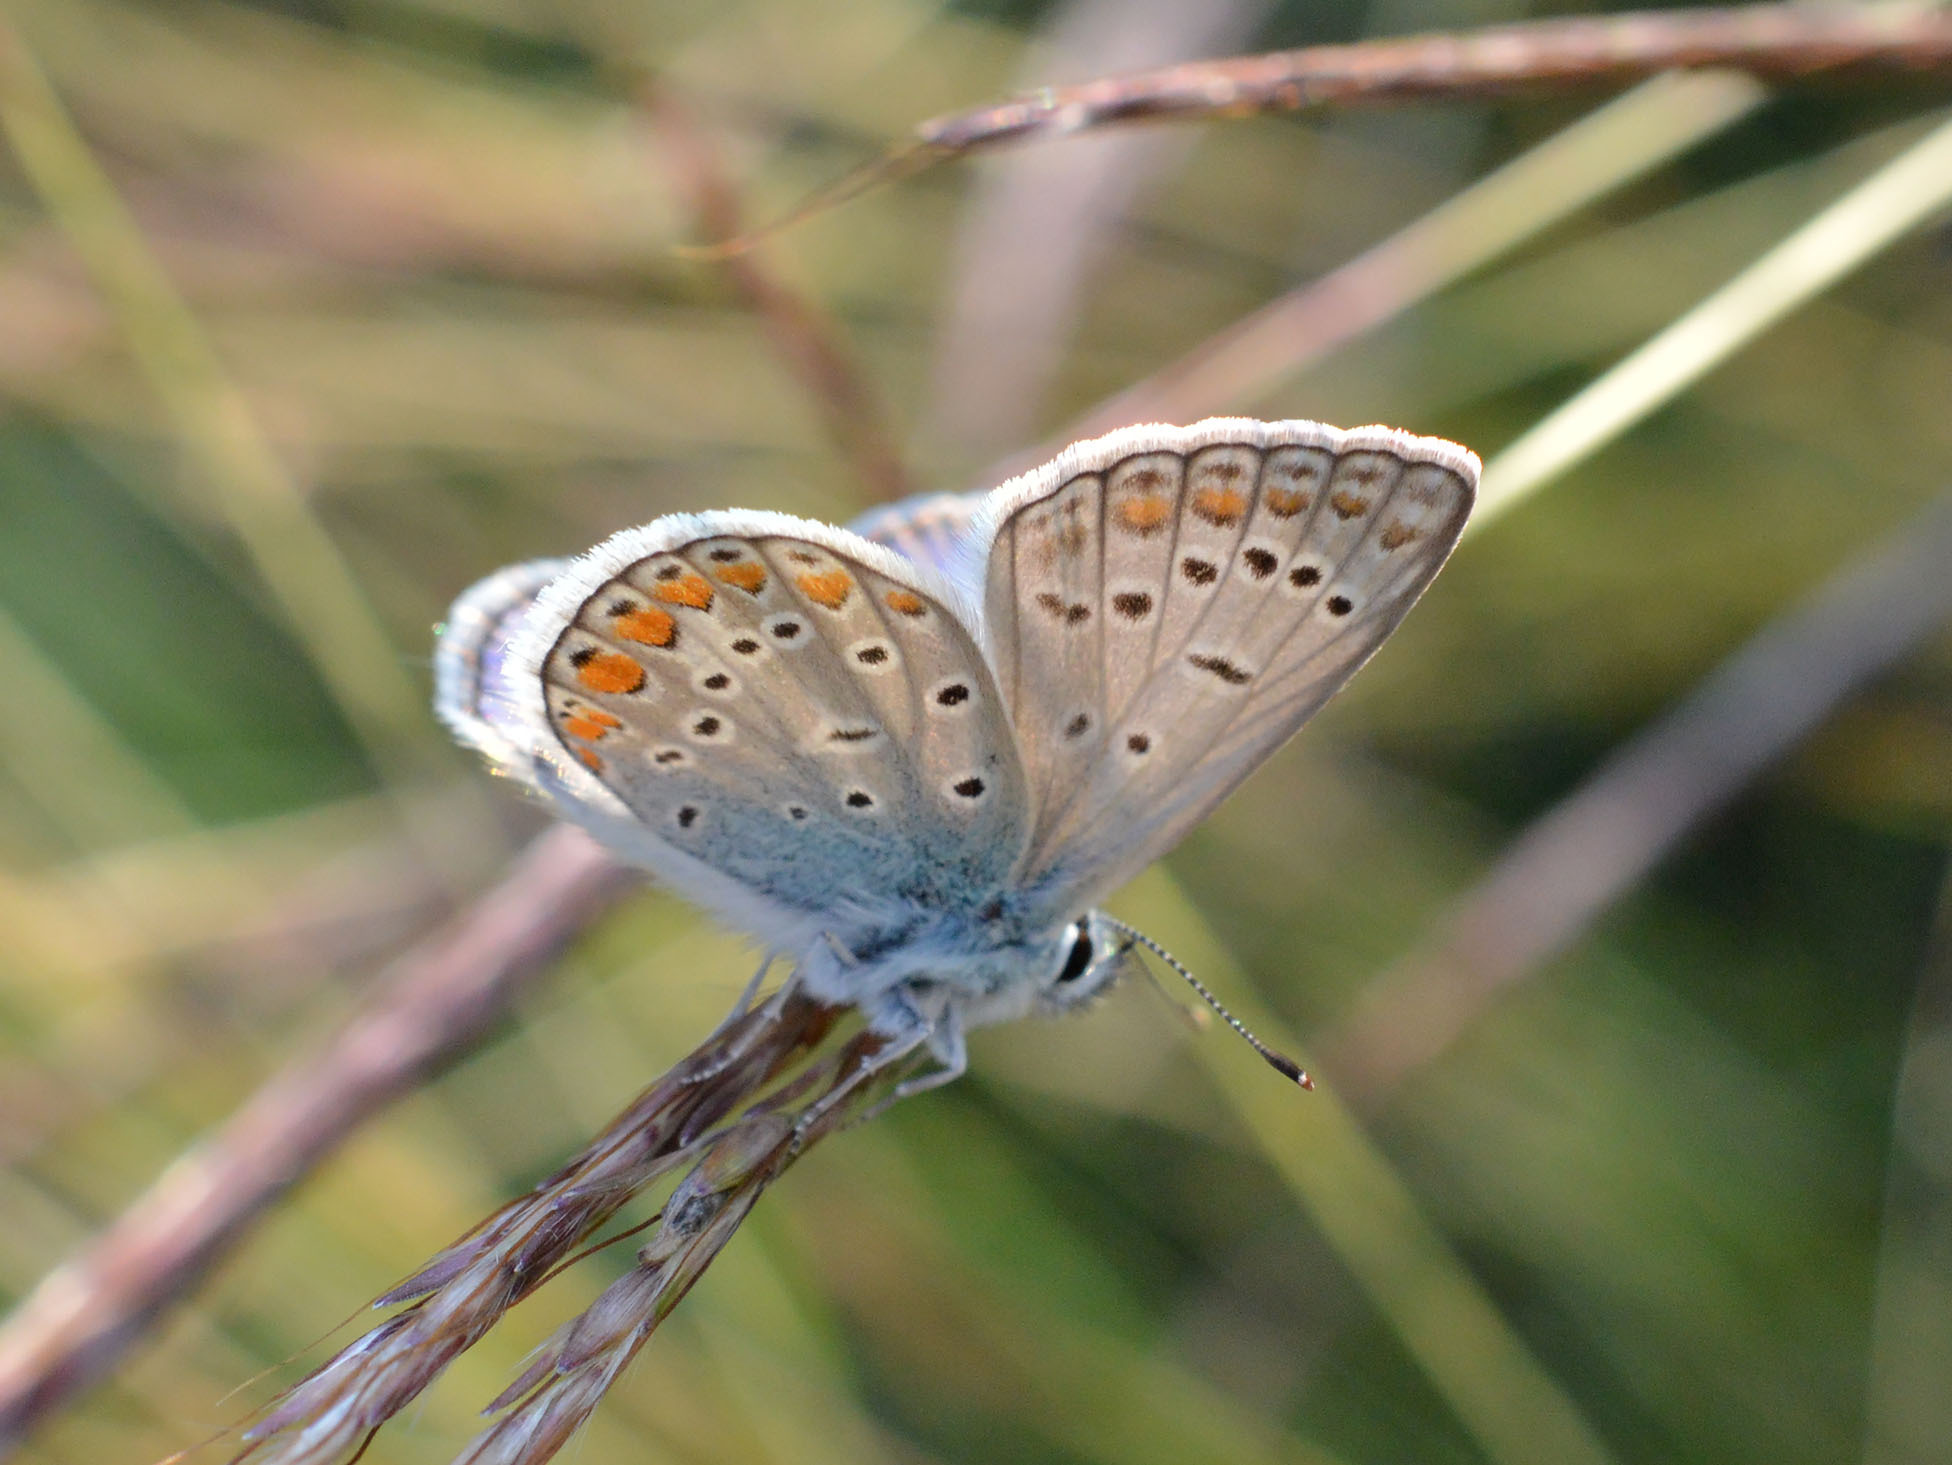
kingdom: Animalia
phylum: Arthropoda
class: Insecta
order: Lepidoptera
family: Lycaenidae
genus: Polyommatus
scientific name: Polyommatus icarus
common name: Common blue
